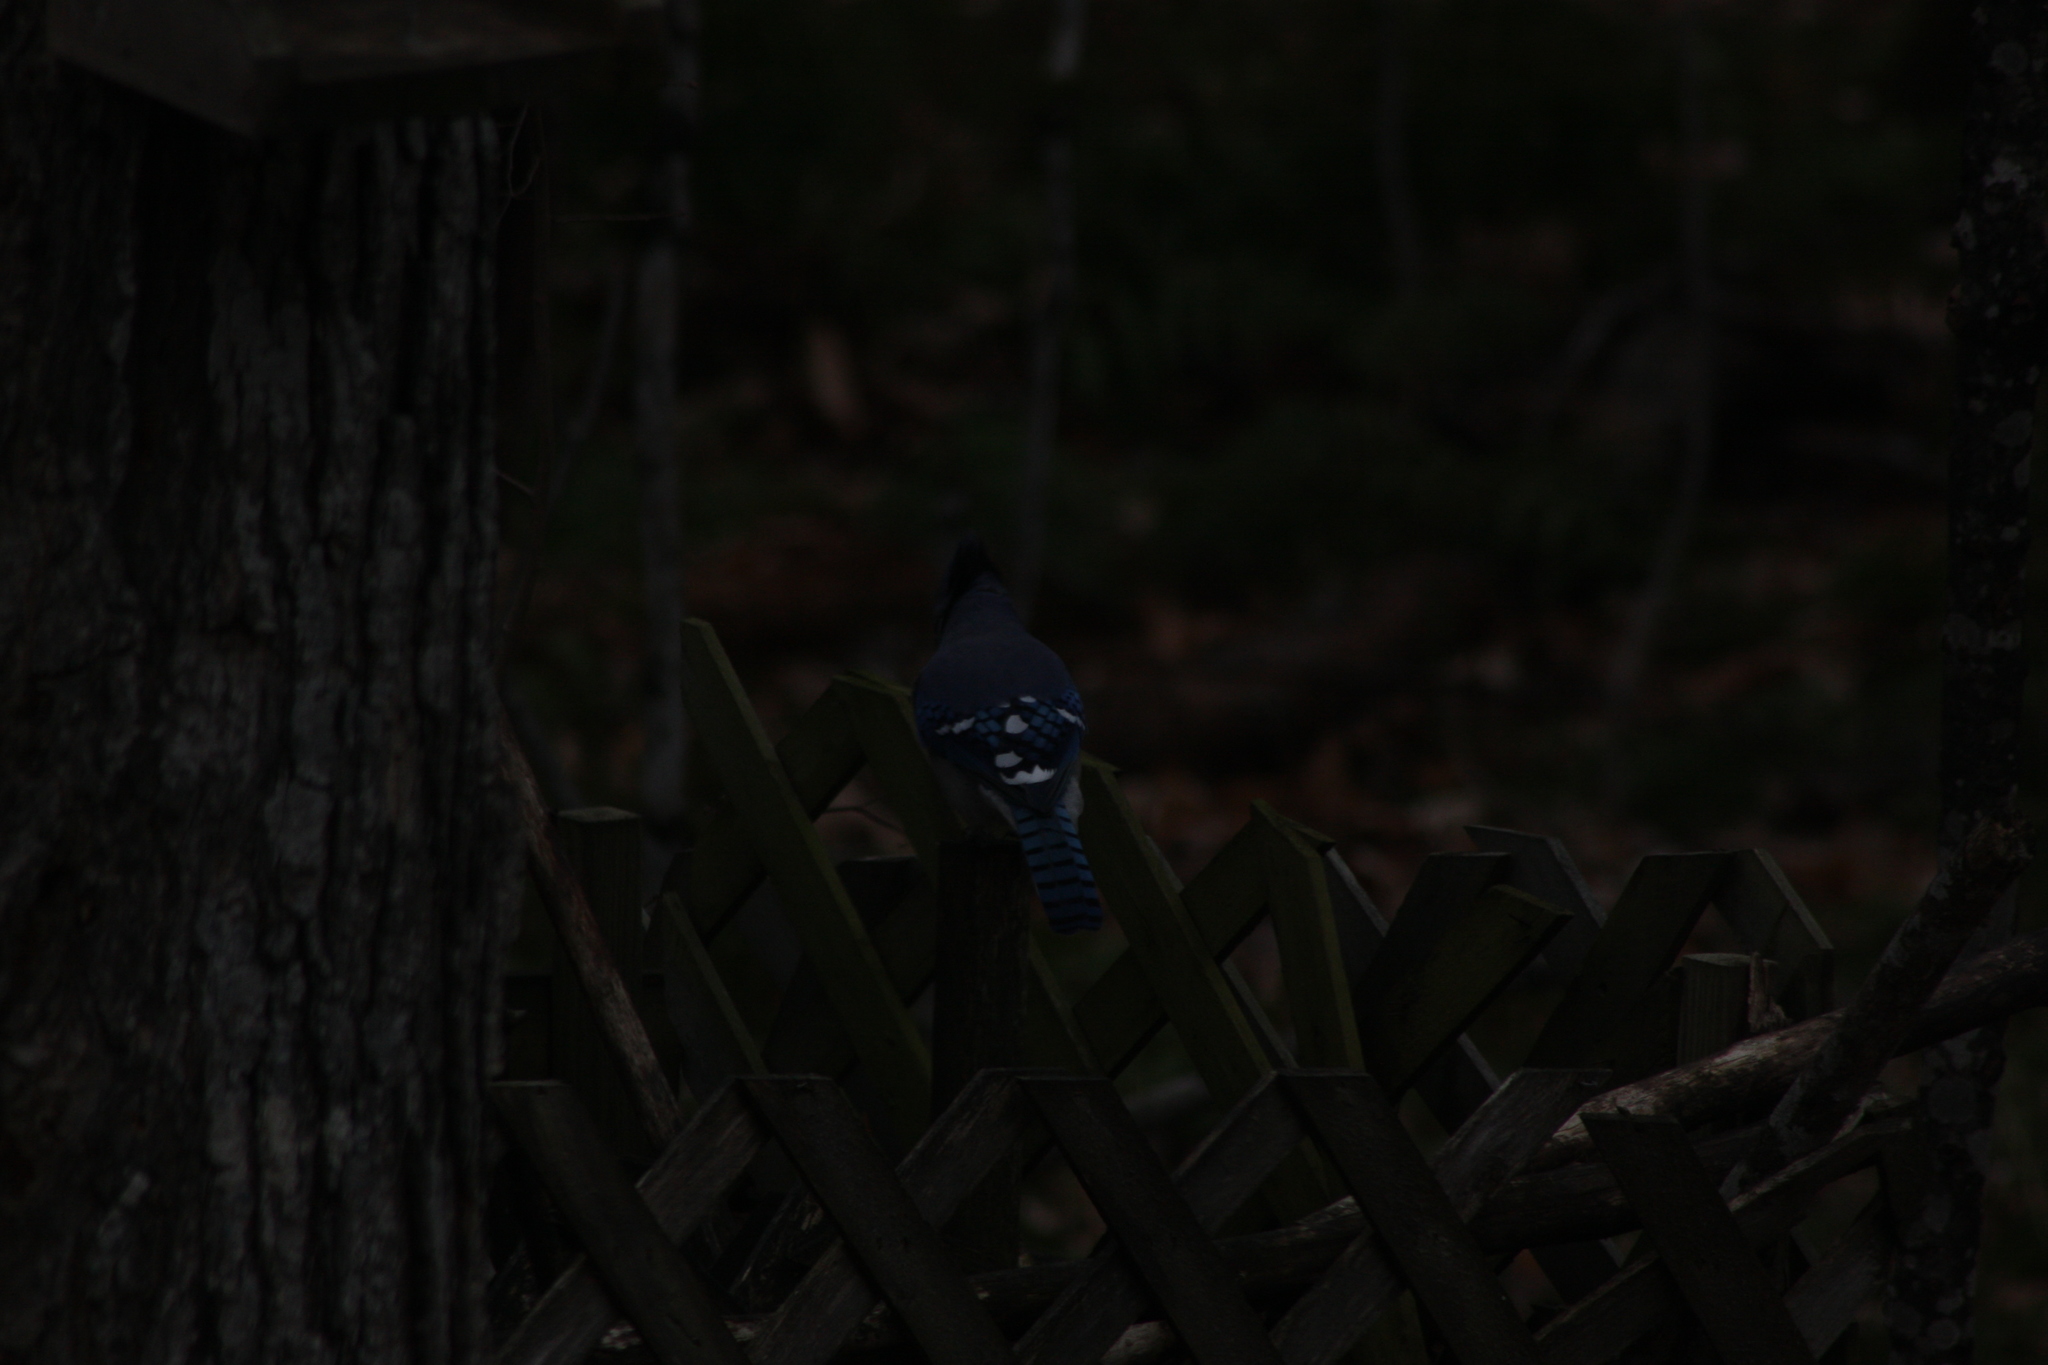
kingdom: Animalia
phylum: Chordata
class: Aves
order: Passeriformes
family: Corvidae
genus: Cyanocitta
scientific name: Cyanocitta cristata
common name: Blue jay
